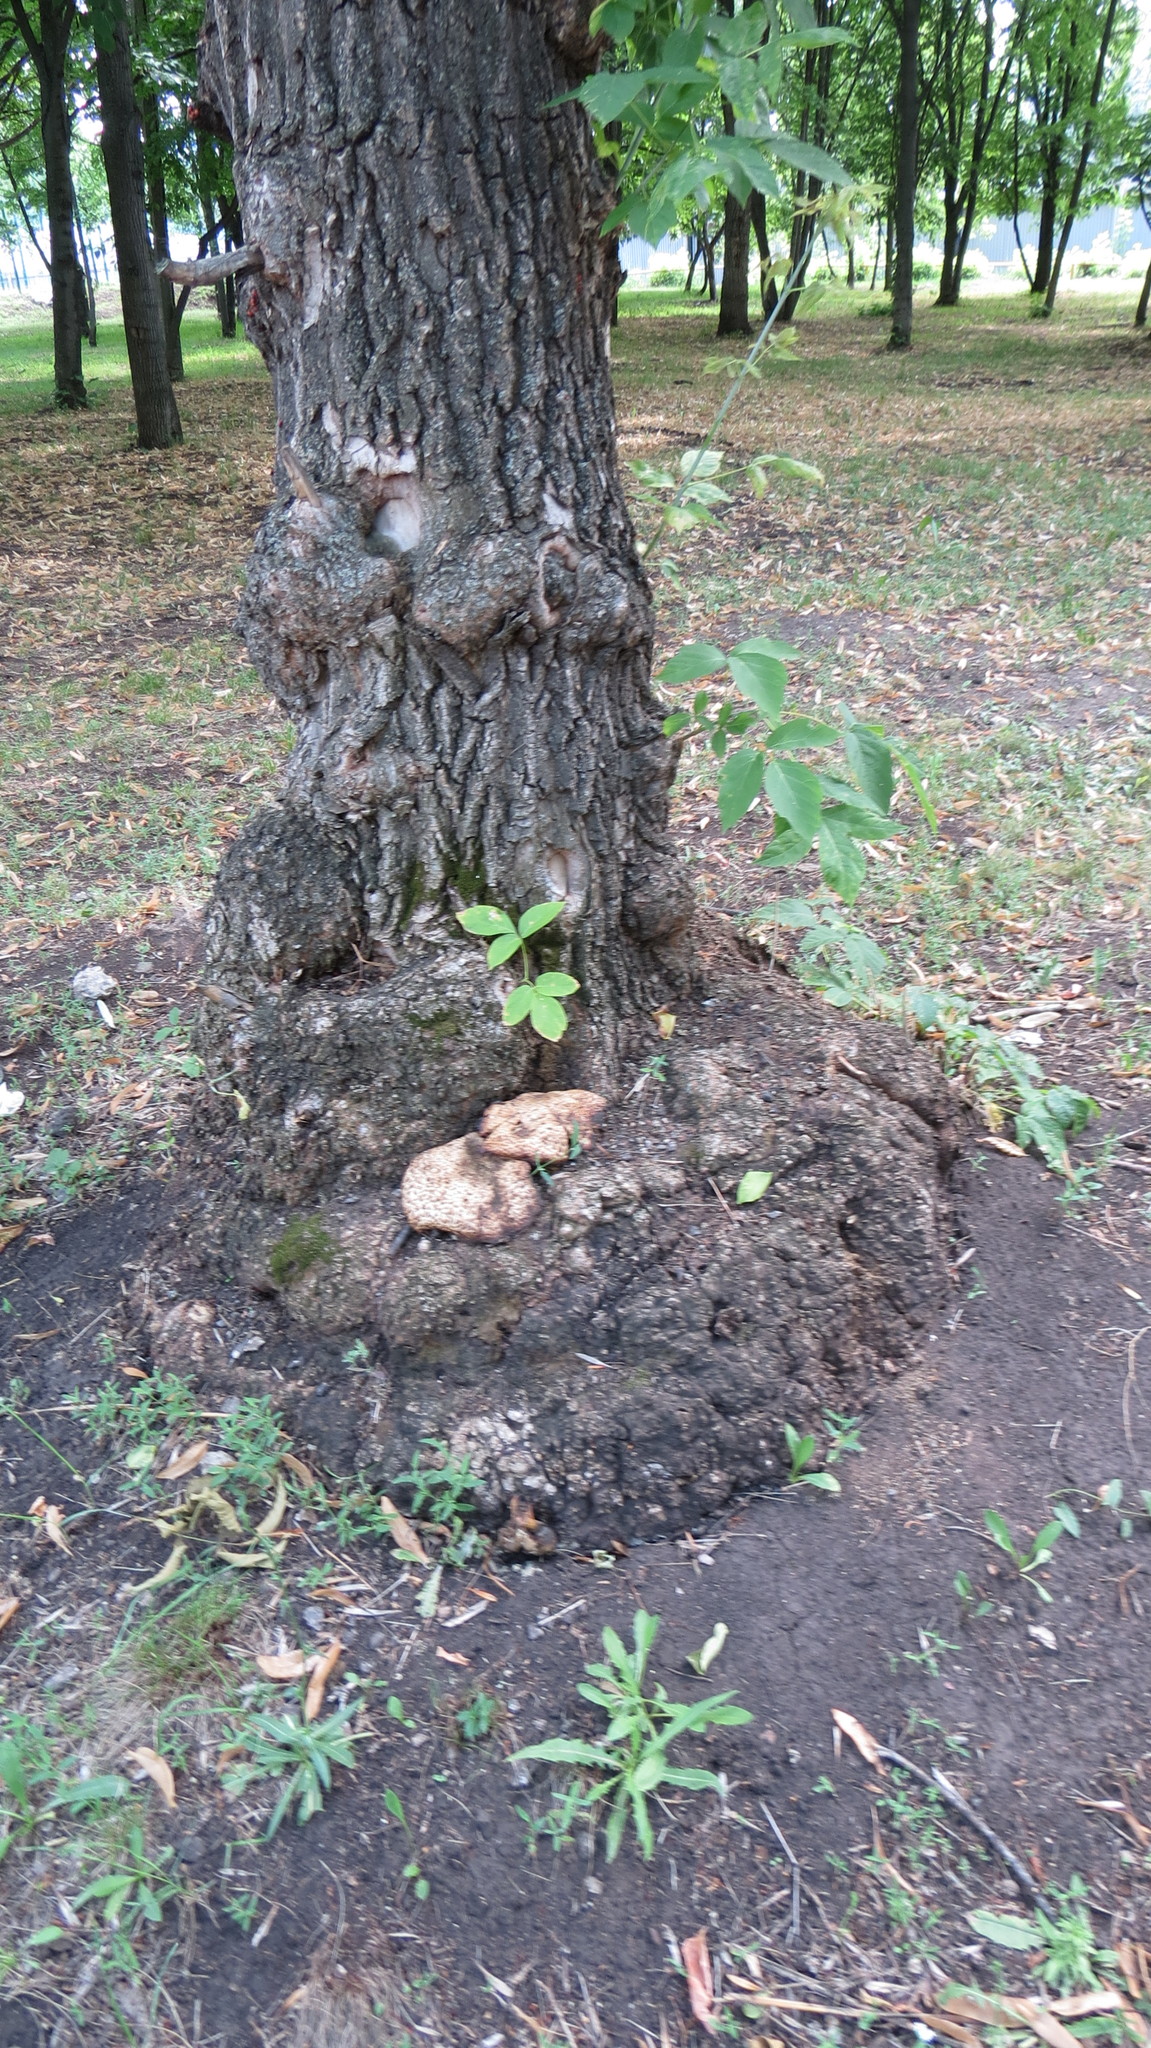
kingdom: Fungi
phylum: Basidiomycota
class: Agaricomycetes
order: Polyporales
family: Polyporaceae
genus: Cerioporus
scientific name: Cerioporus squamosus
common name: Dryad's saddle
